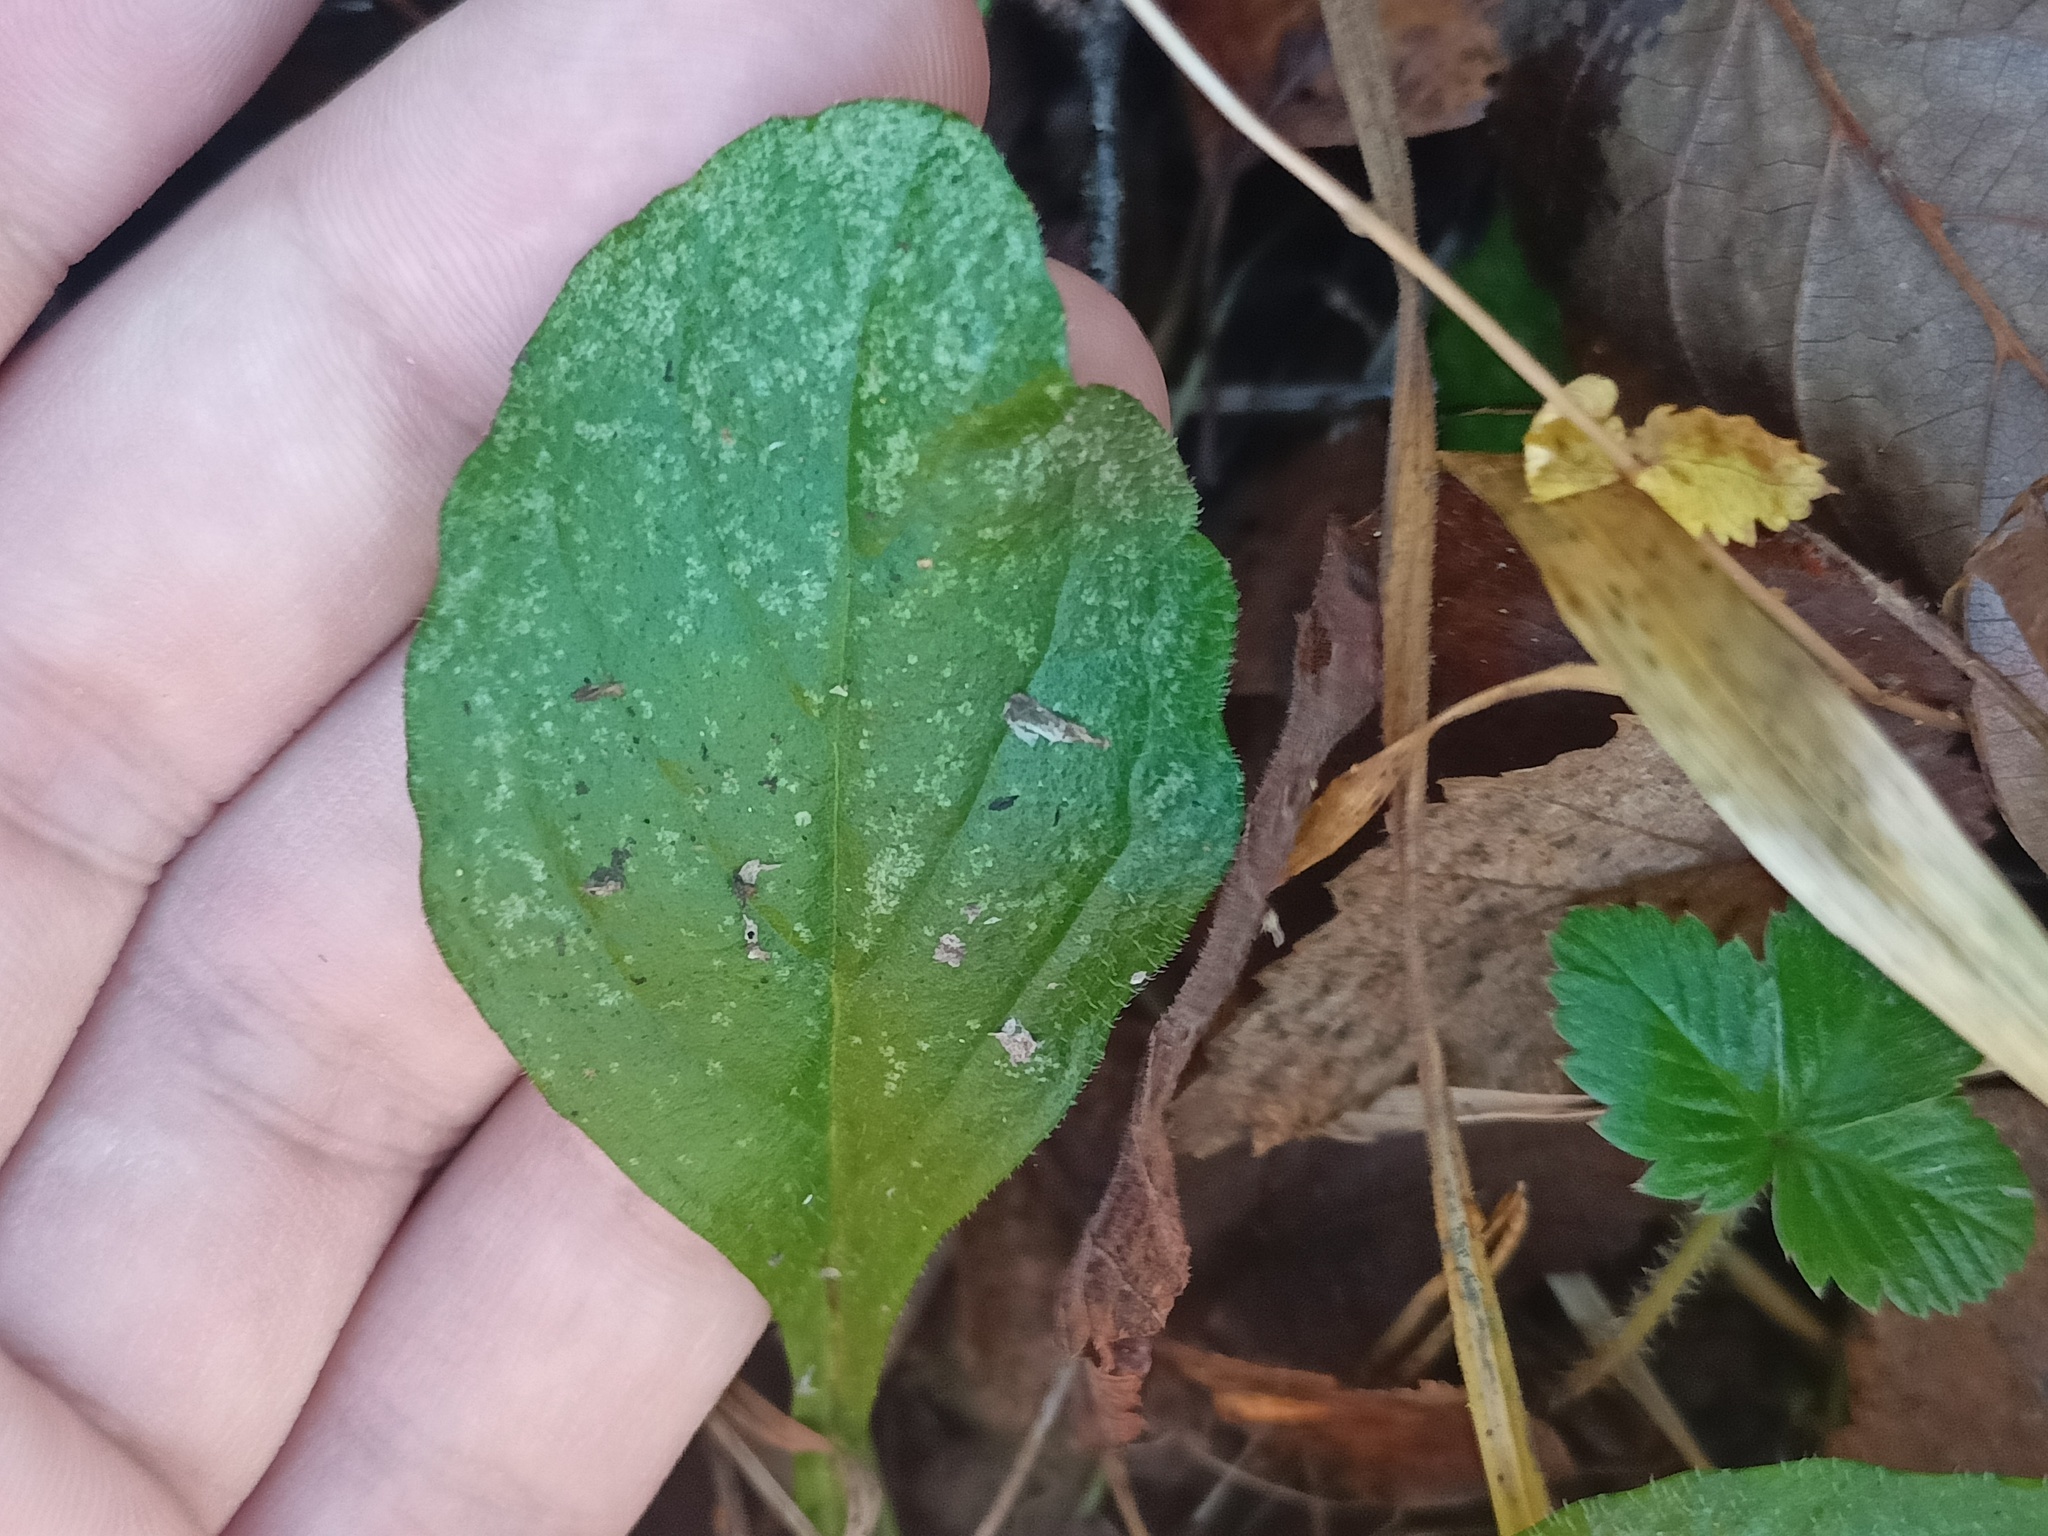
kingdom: Plantae
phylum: Tracheophyta
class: Magnoliopsida
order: Lamiales
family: Lamiaceae
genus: Ajuga
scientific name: Ajuga reptans
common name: Bugle
